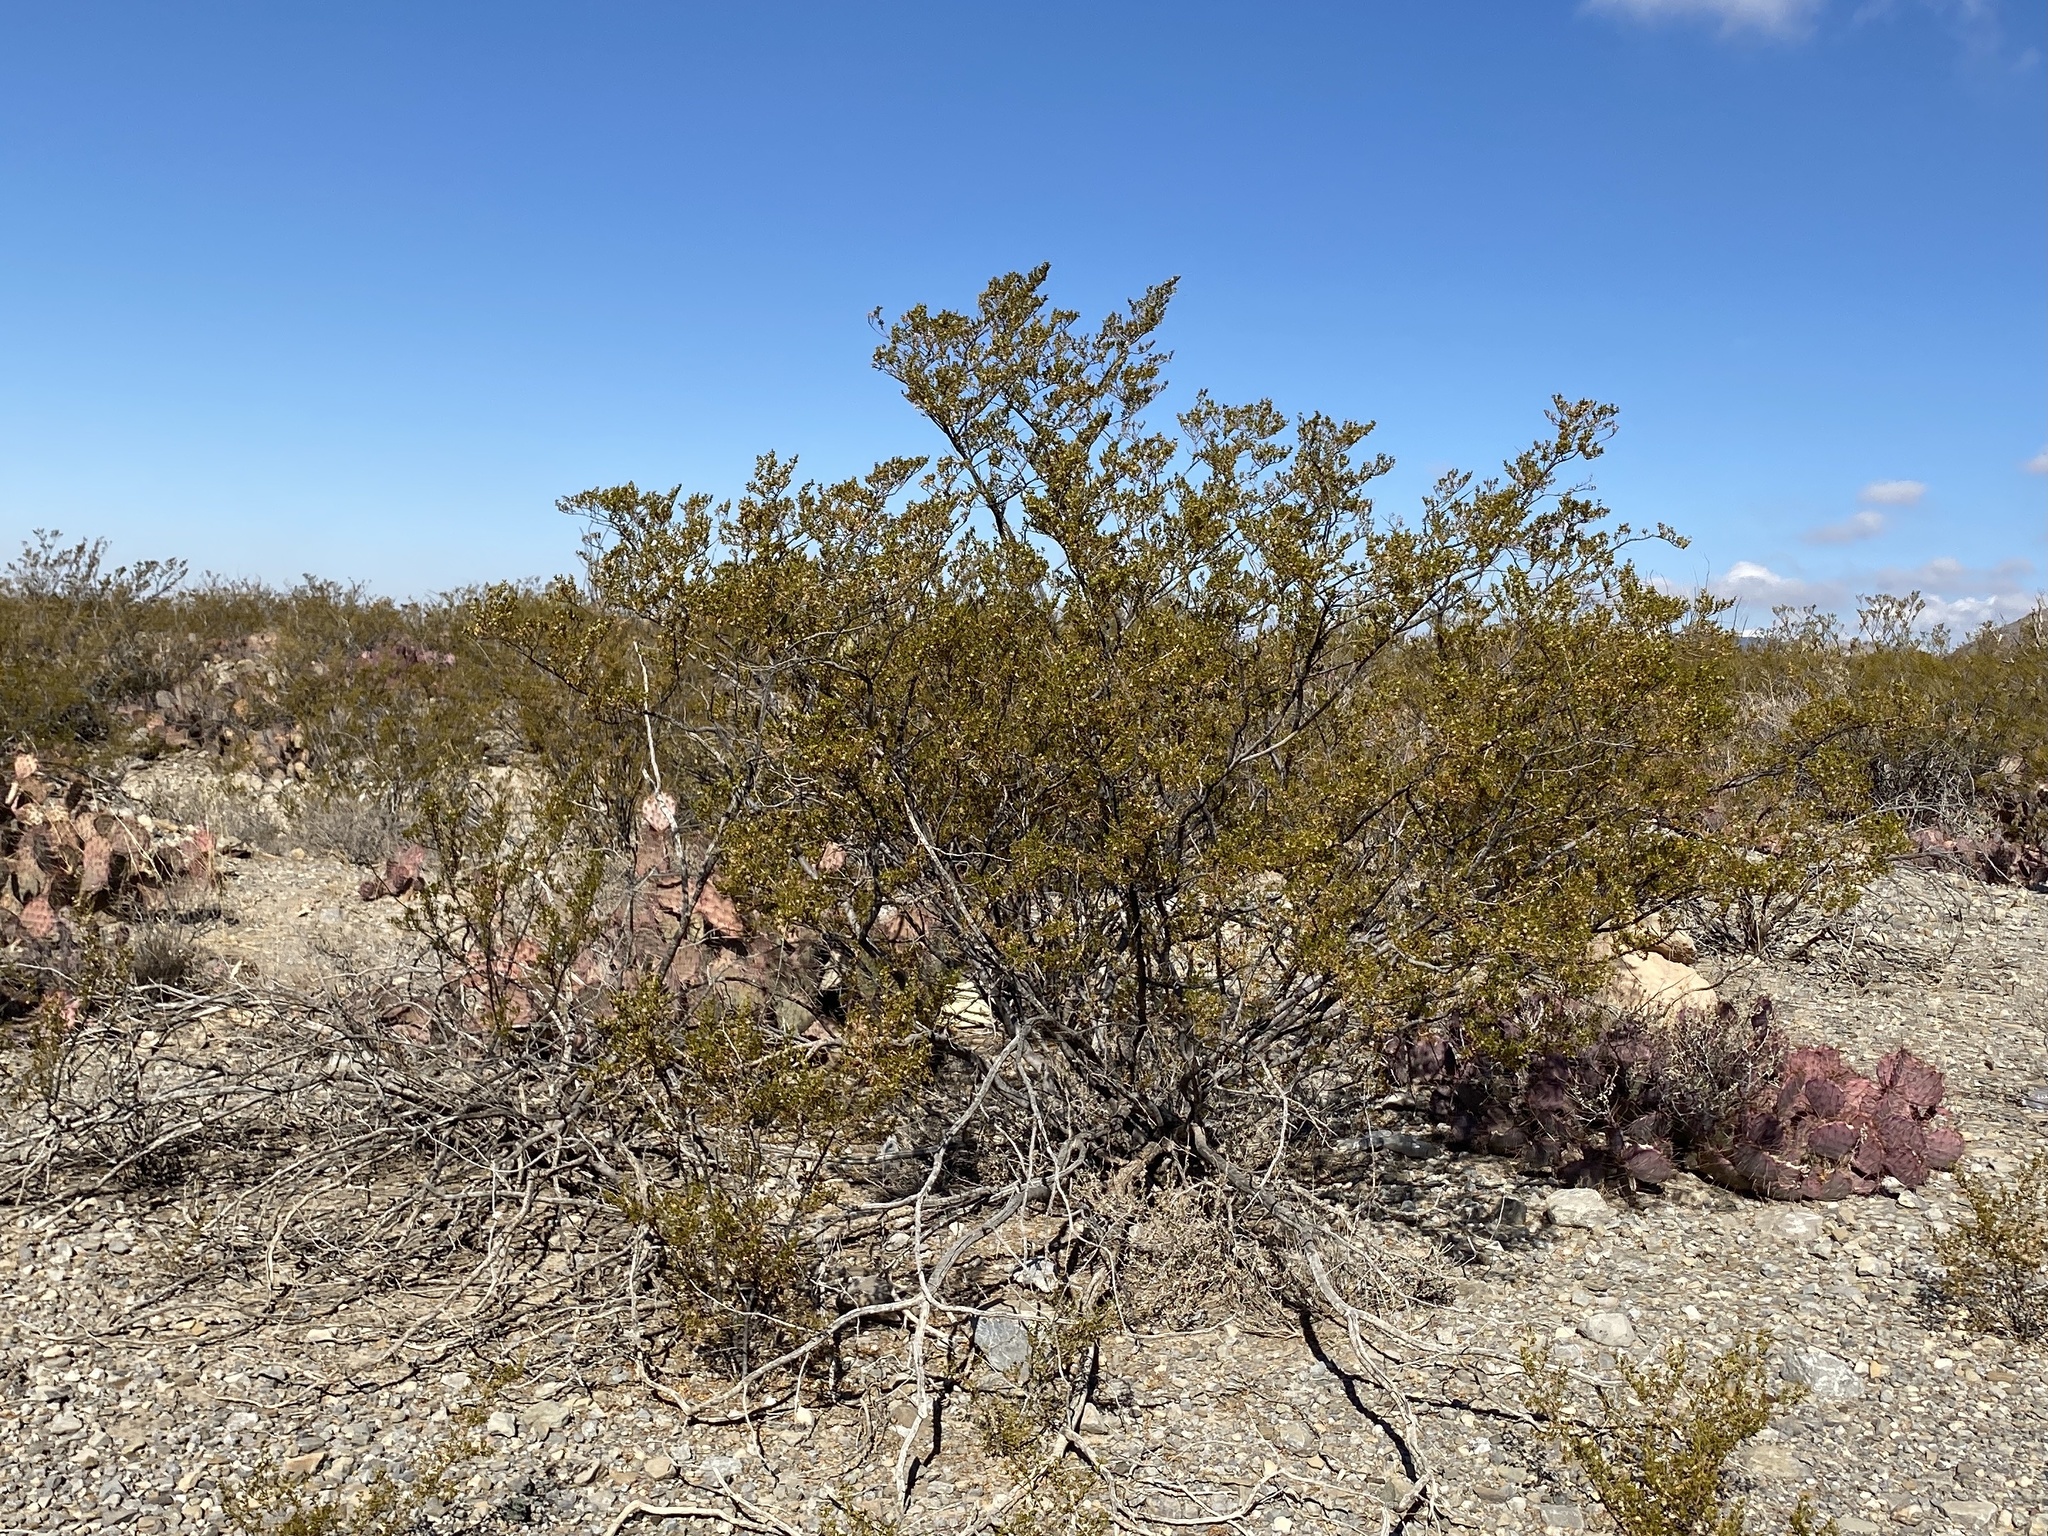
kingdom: Plantae
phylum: Tracheophyta
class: Magnoliopsida
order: Zygophyllales
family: Zygophyllaceae
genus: Larrea
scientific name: Larrea tridentata
